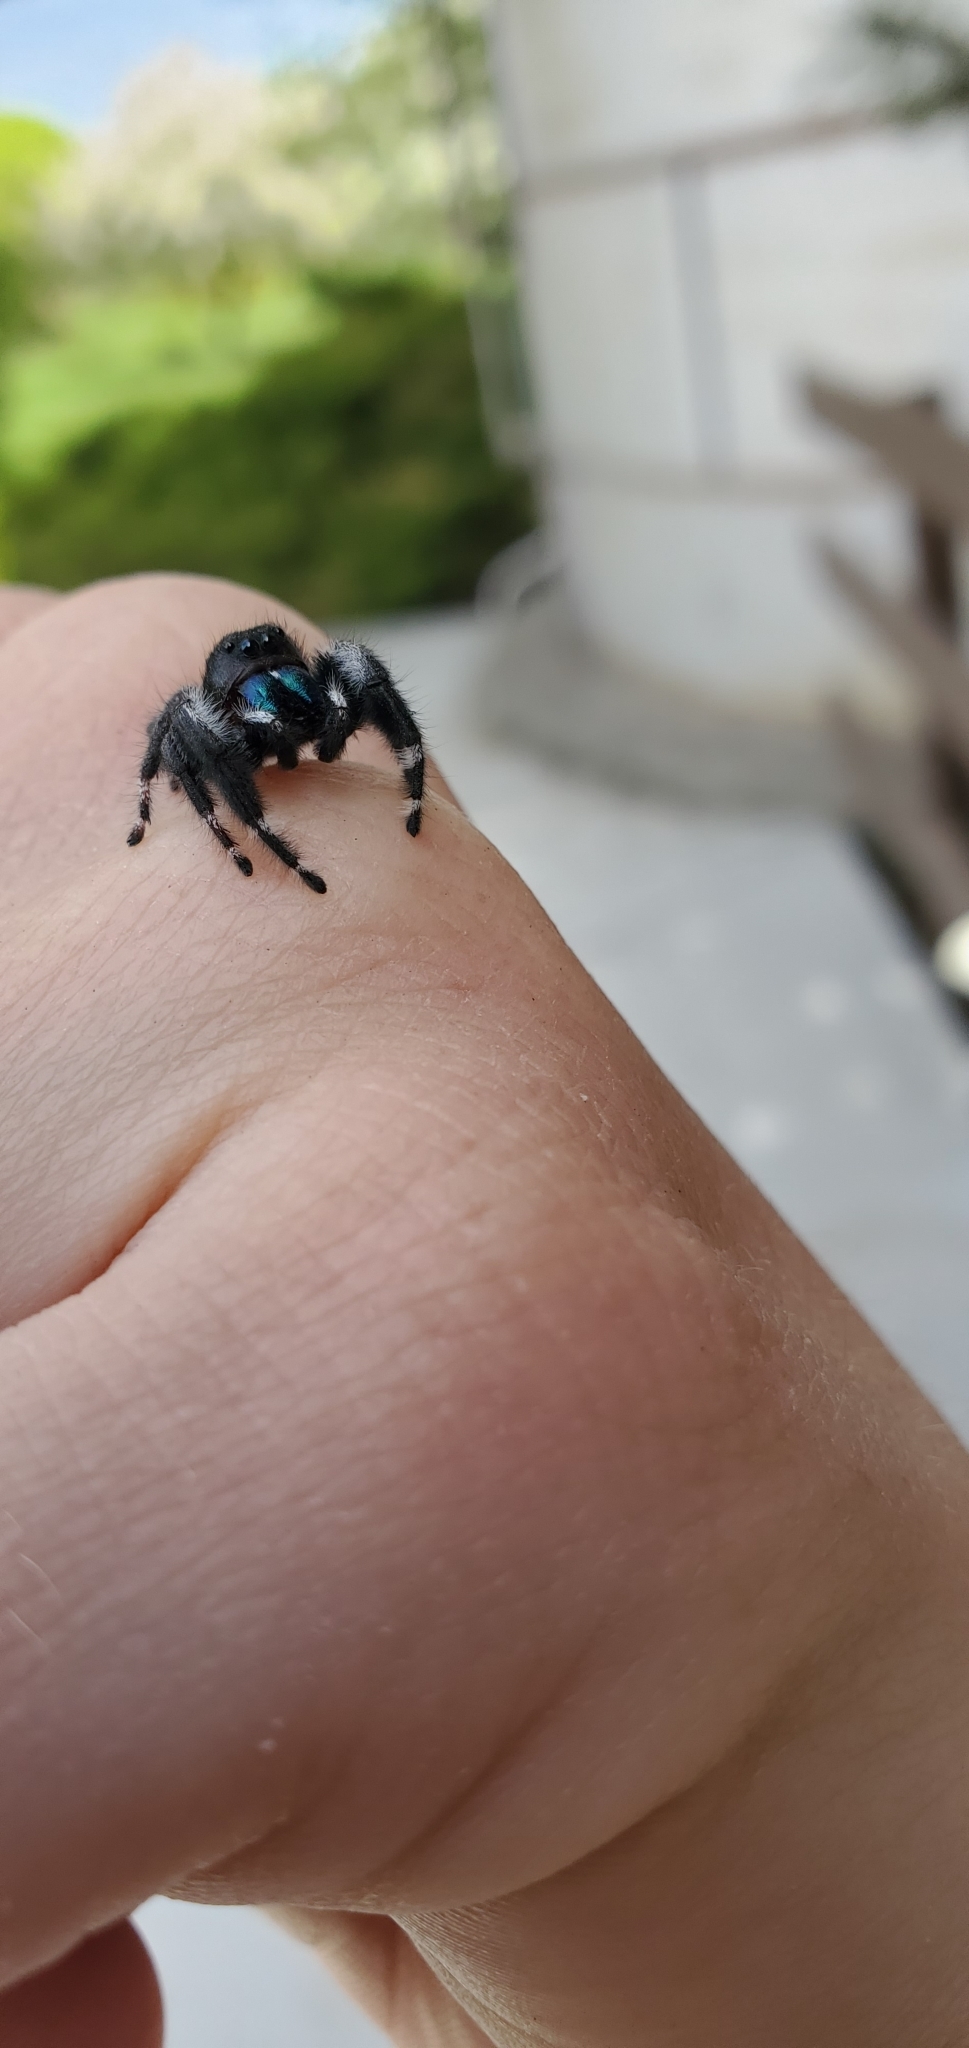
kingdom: Animalia
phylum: Arthropoda
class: Arachnida
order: Araneae
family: Salticidae
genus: Phidippus
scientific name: Phidippus audax
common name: Bold jumper
